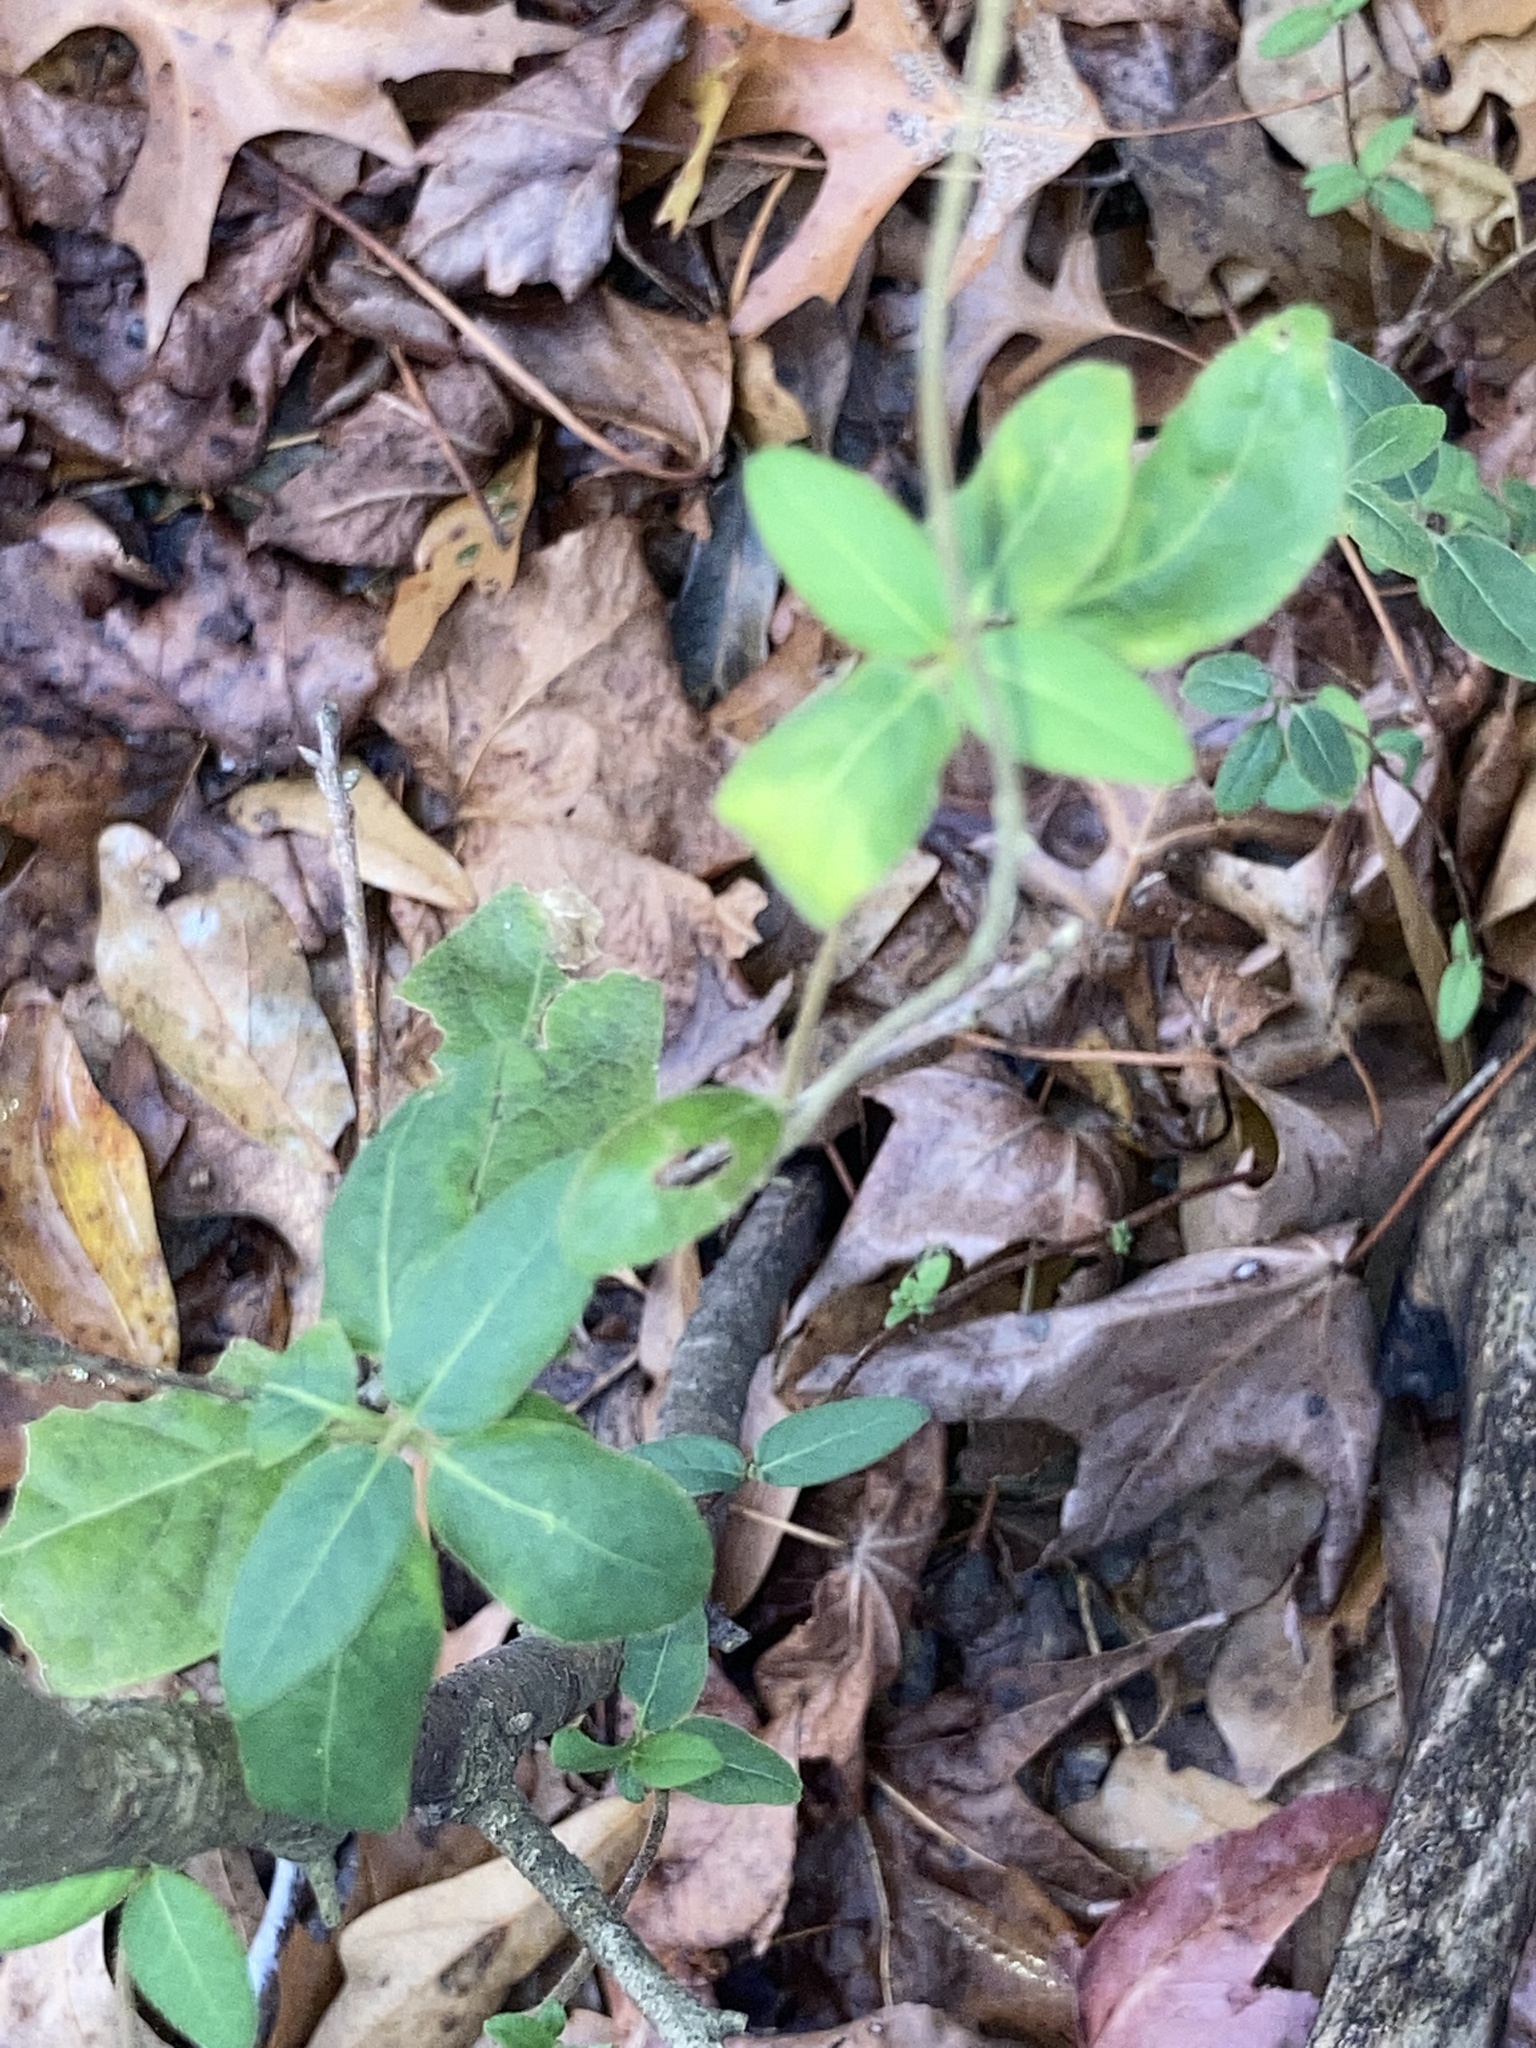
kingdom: Plantae
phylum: Tracheophyta
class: Magnoliopsida
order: Dipsacales
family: Caprifoliaceae
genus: Lonicera
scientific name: Lonicera japonica
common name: Japanese honeysuckle
